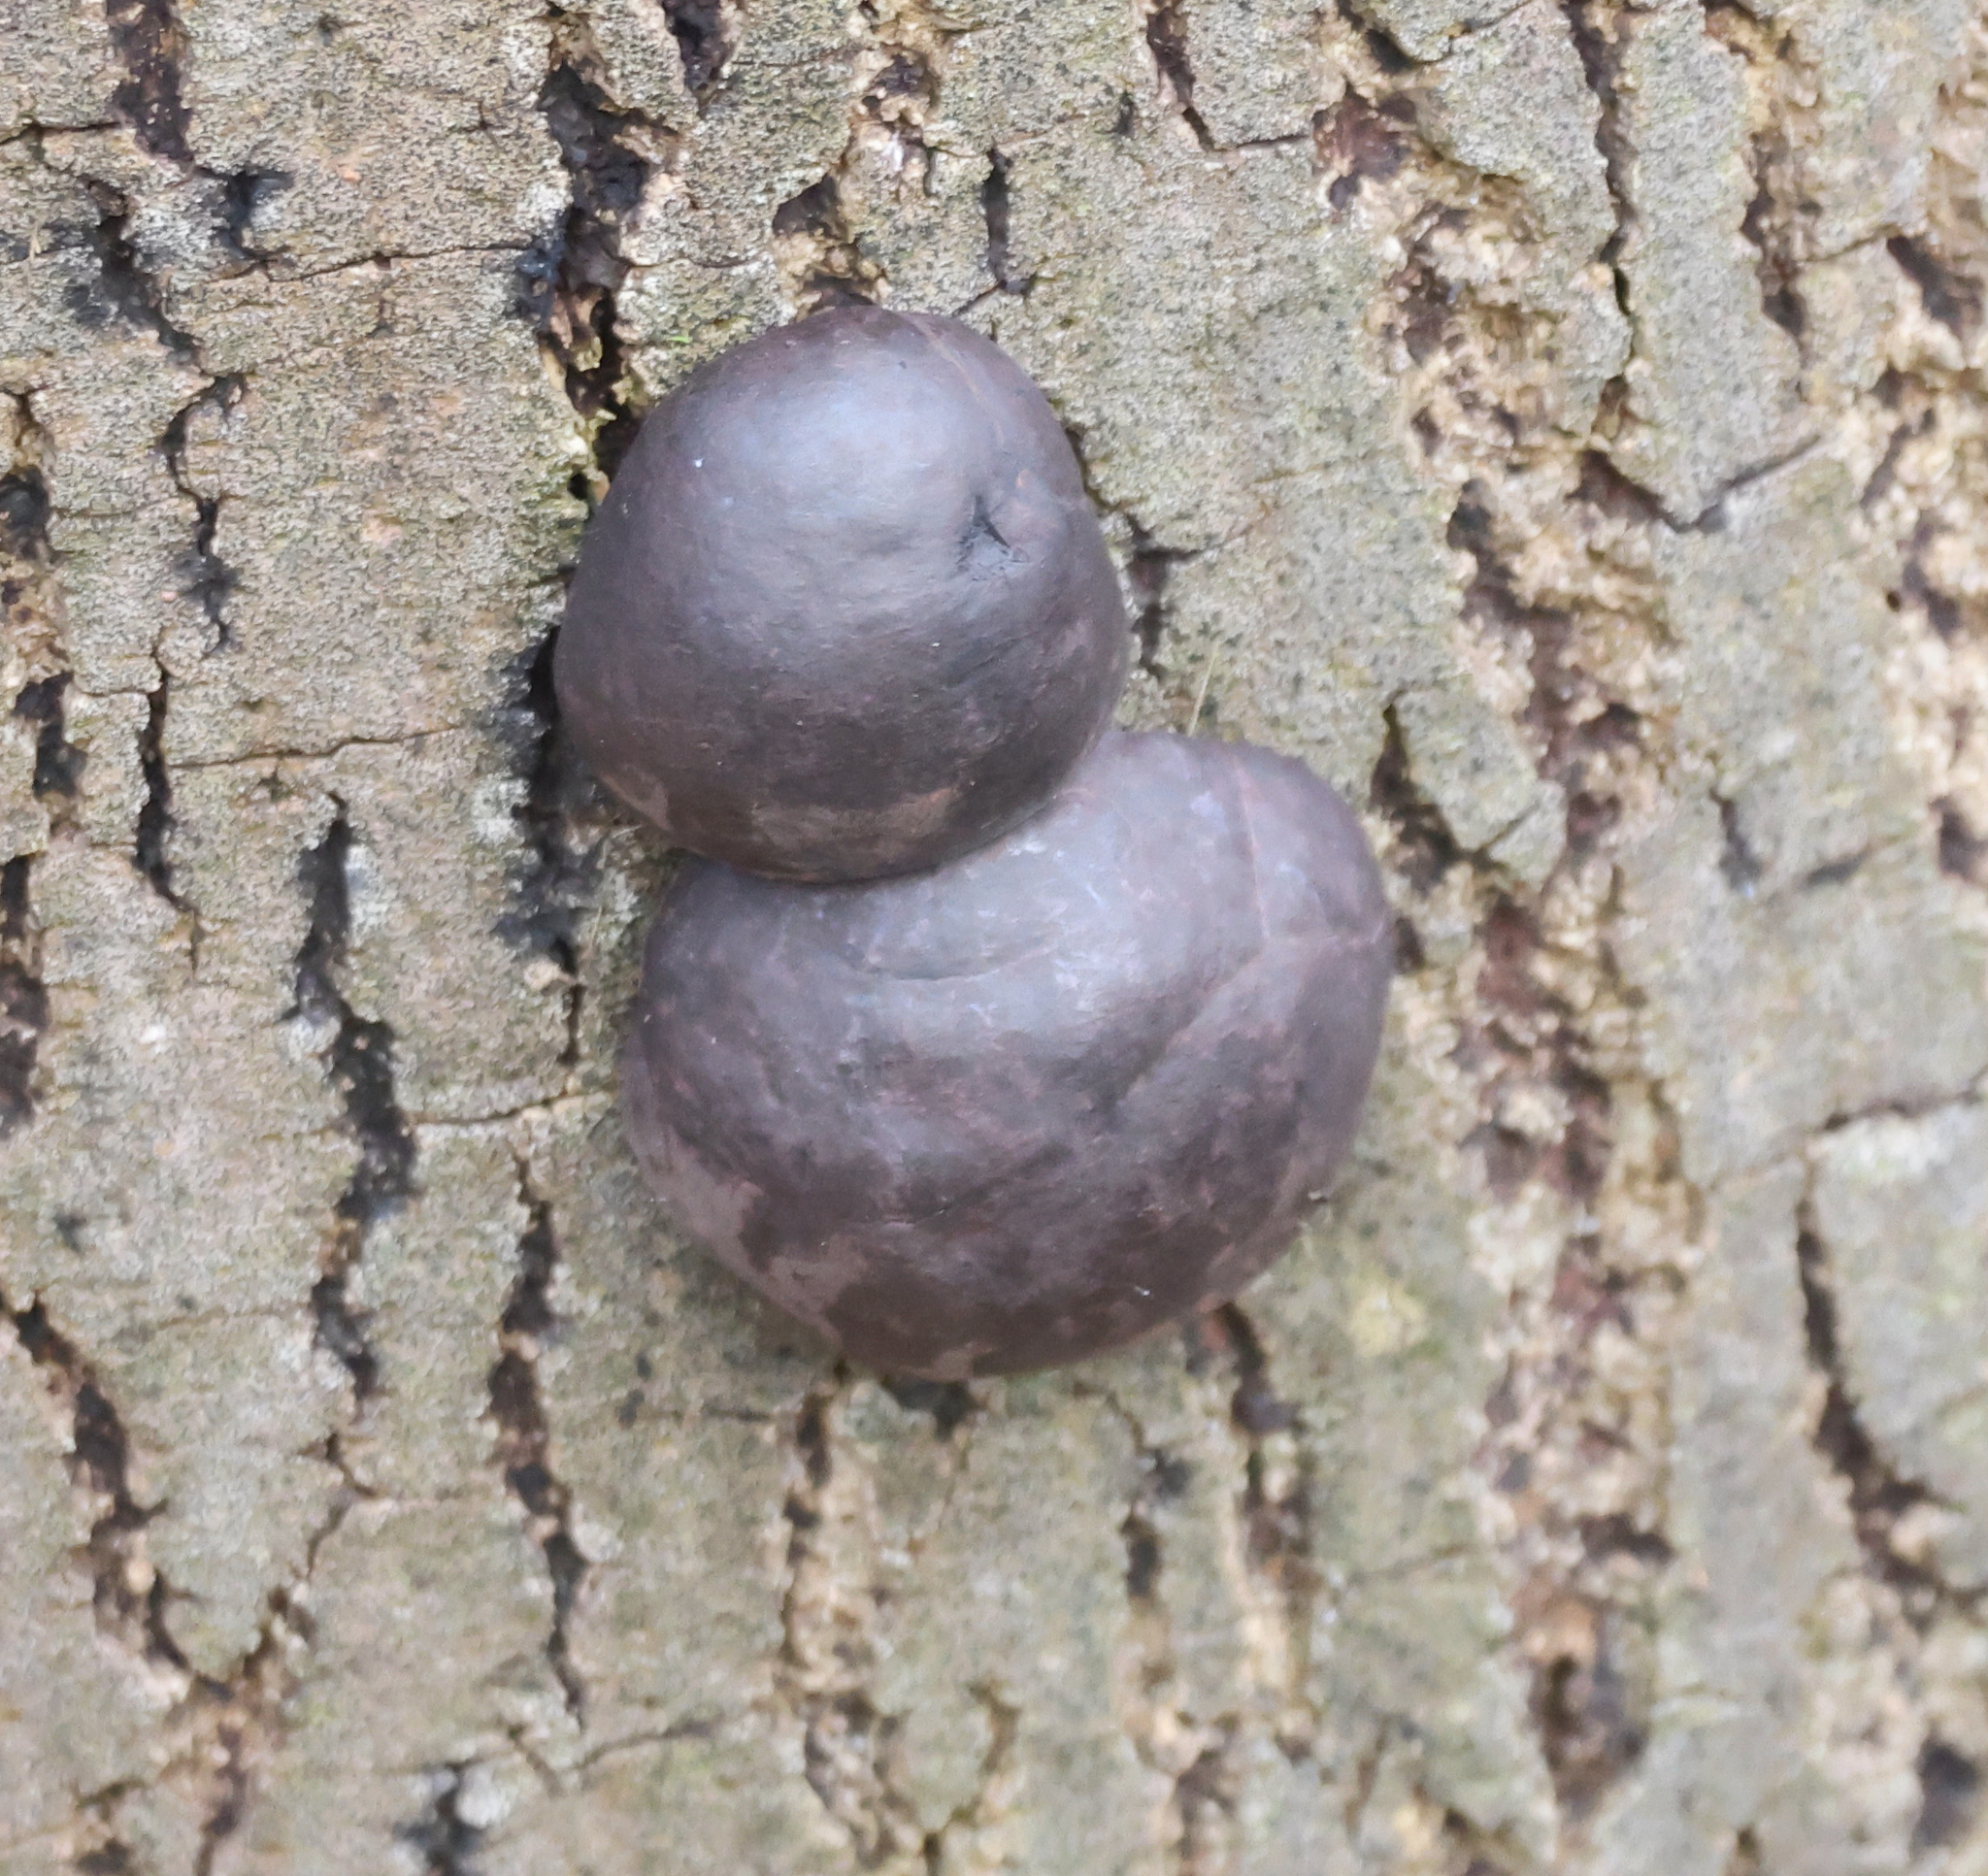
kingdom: Fungi
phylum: Ascomycota
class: Sordariomycetes
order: Xylariales
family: Hypoxylaceae
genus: Daldinia
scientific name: Daldinia concentrica
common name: Cramp balls
